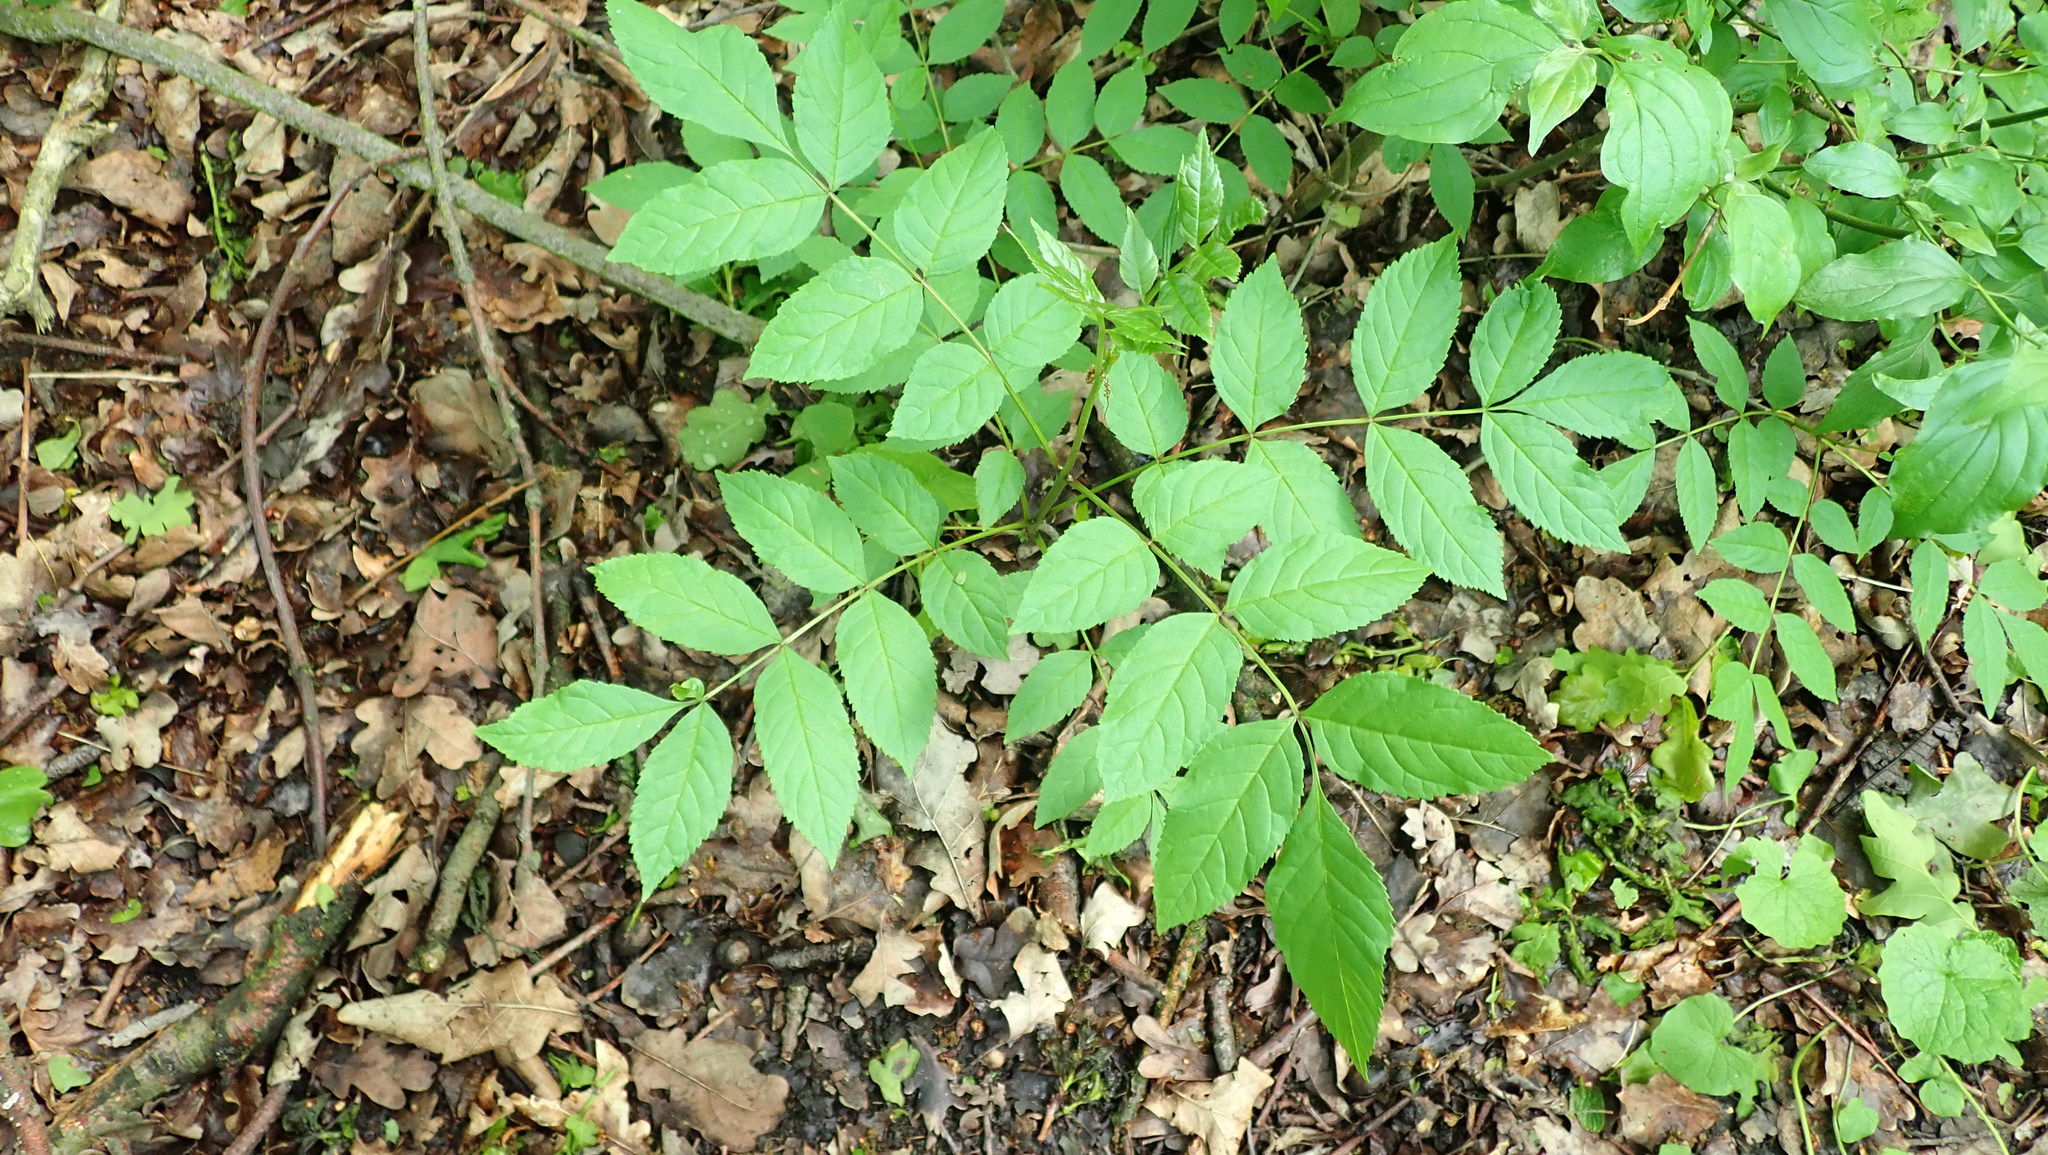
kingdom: Plantae
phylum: Tracheophyta
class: Magnoliopsida
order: Lamiales
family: Oleaceae
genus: Fraxinus
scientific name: Fraxinus excelsior
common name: European ash
